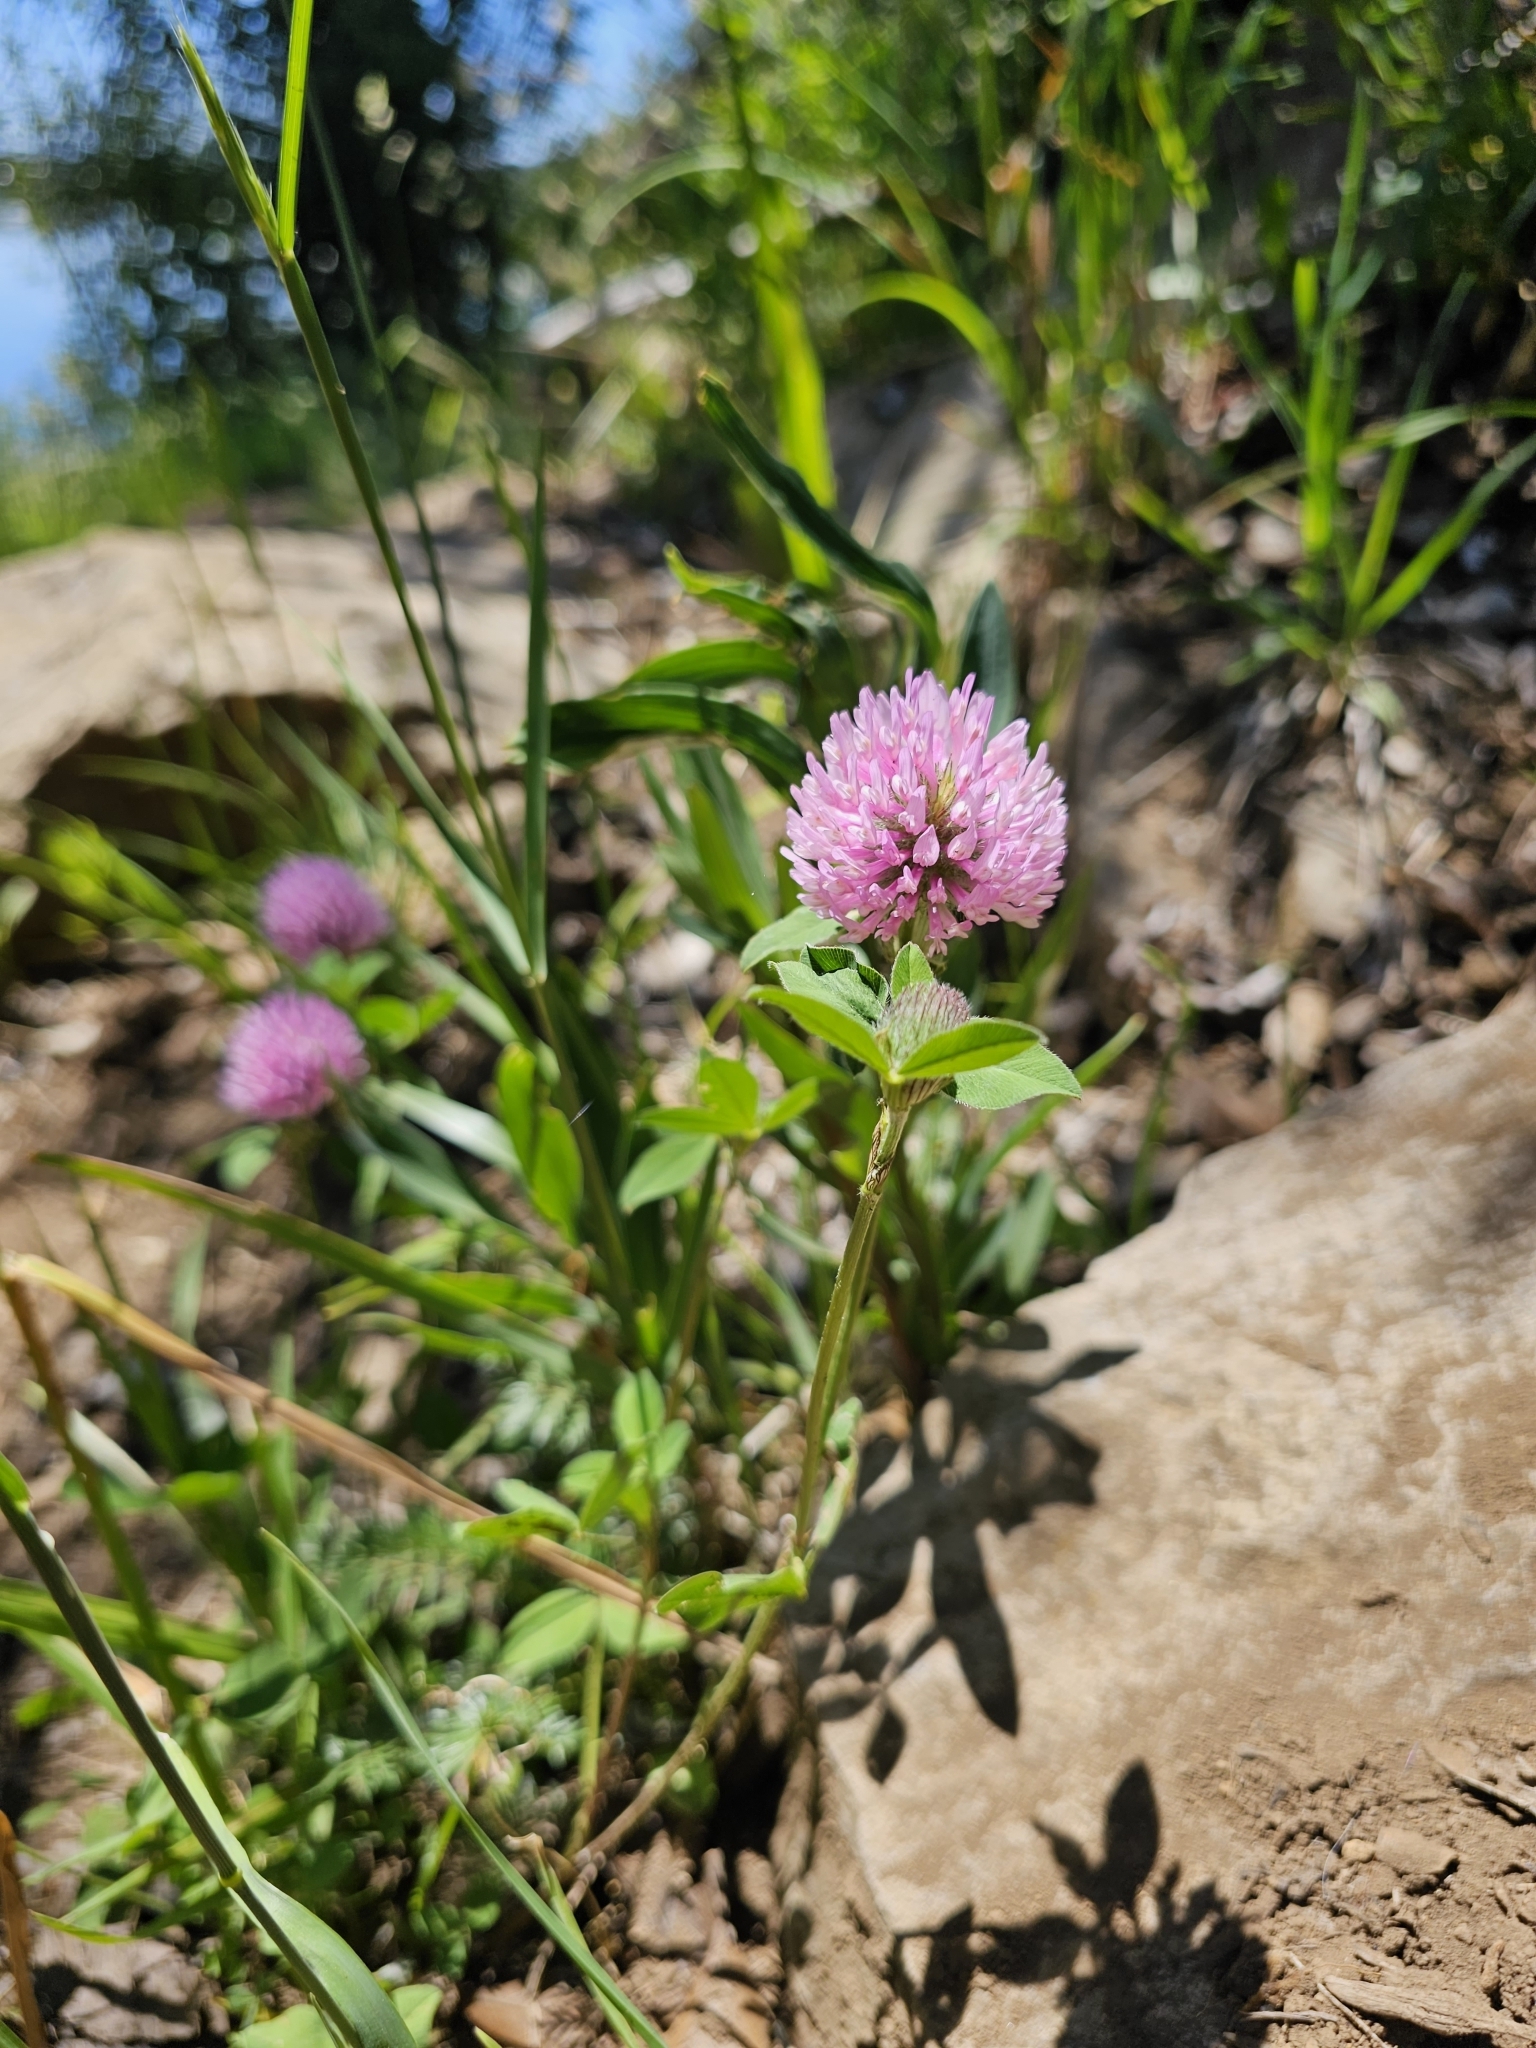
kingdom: Plantae
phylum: Tracheophyta
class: Magnoliopsida
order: Fabales
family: Fabaceae
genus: Trifolium
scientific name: Trifolium pratense
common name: Red clover
